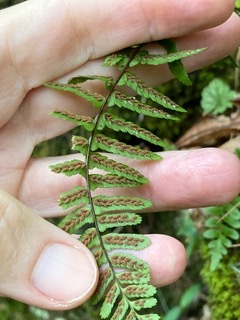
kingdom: Plantae
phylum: Tracheophyta
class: Polypodiopsida
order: Polypodiales
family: Aspleniaceae
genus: Asplenium
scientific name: Asplenium platyneuron
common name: Ebony spleenwort
